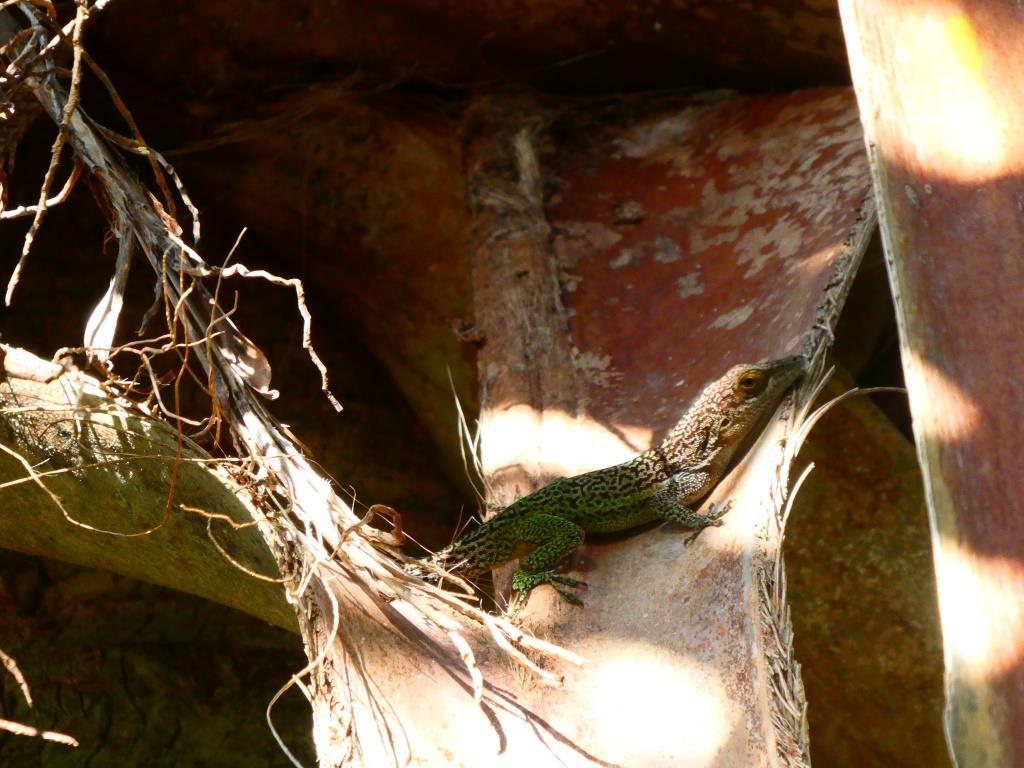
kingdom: Animalia
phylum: Chordata
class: Squamata
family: Dactyloidae
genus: Anolis
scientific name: Anolis leachii
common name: Barbuda bank tree anole
